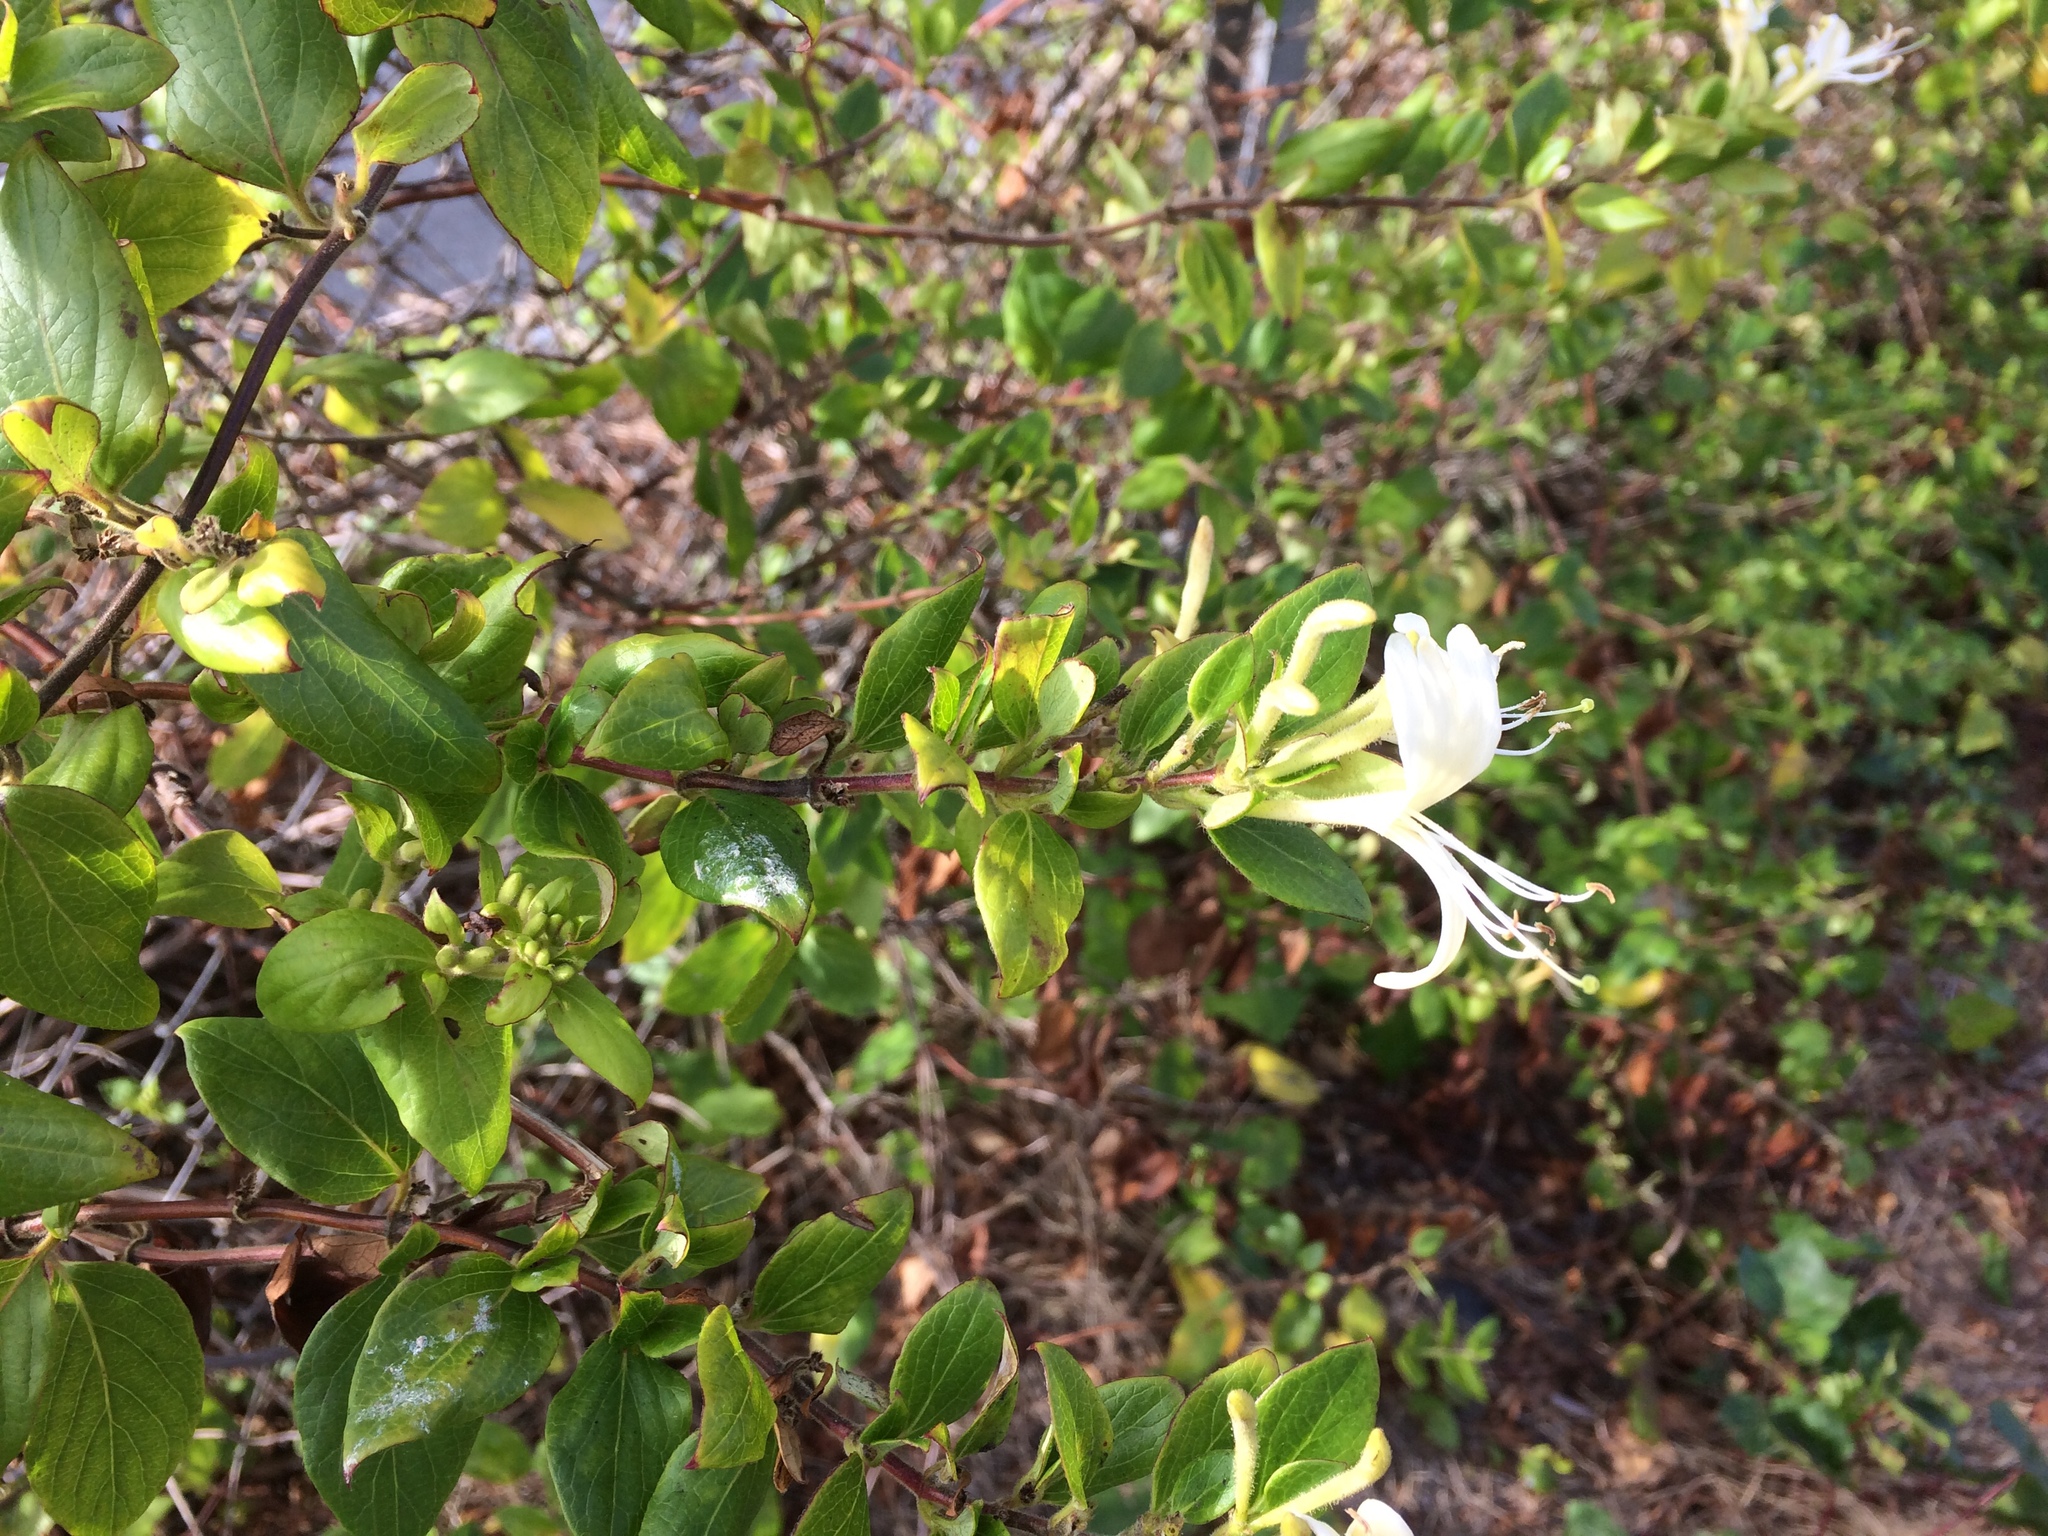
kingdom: Plantae
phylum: Tracheophyta
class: Magnoliopsida
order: Dipsacales
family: Caprifoliaceae
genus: Lonicera
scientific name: Lonicera japonica
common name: Japanese honeysuckle
